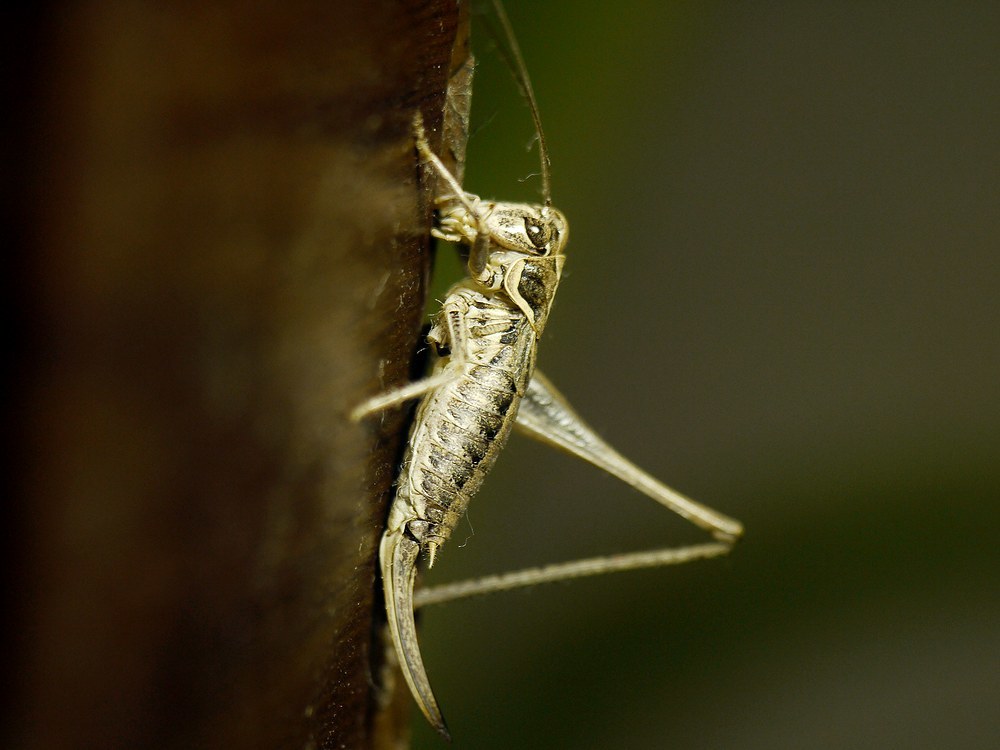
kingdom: Animalia
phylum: Arthropoda
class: Insecta
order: Orthoptera
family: Tettigoniidae
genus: Montana
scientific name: Montana medvedevi
